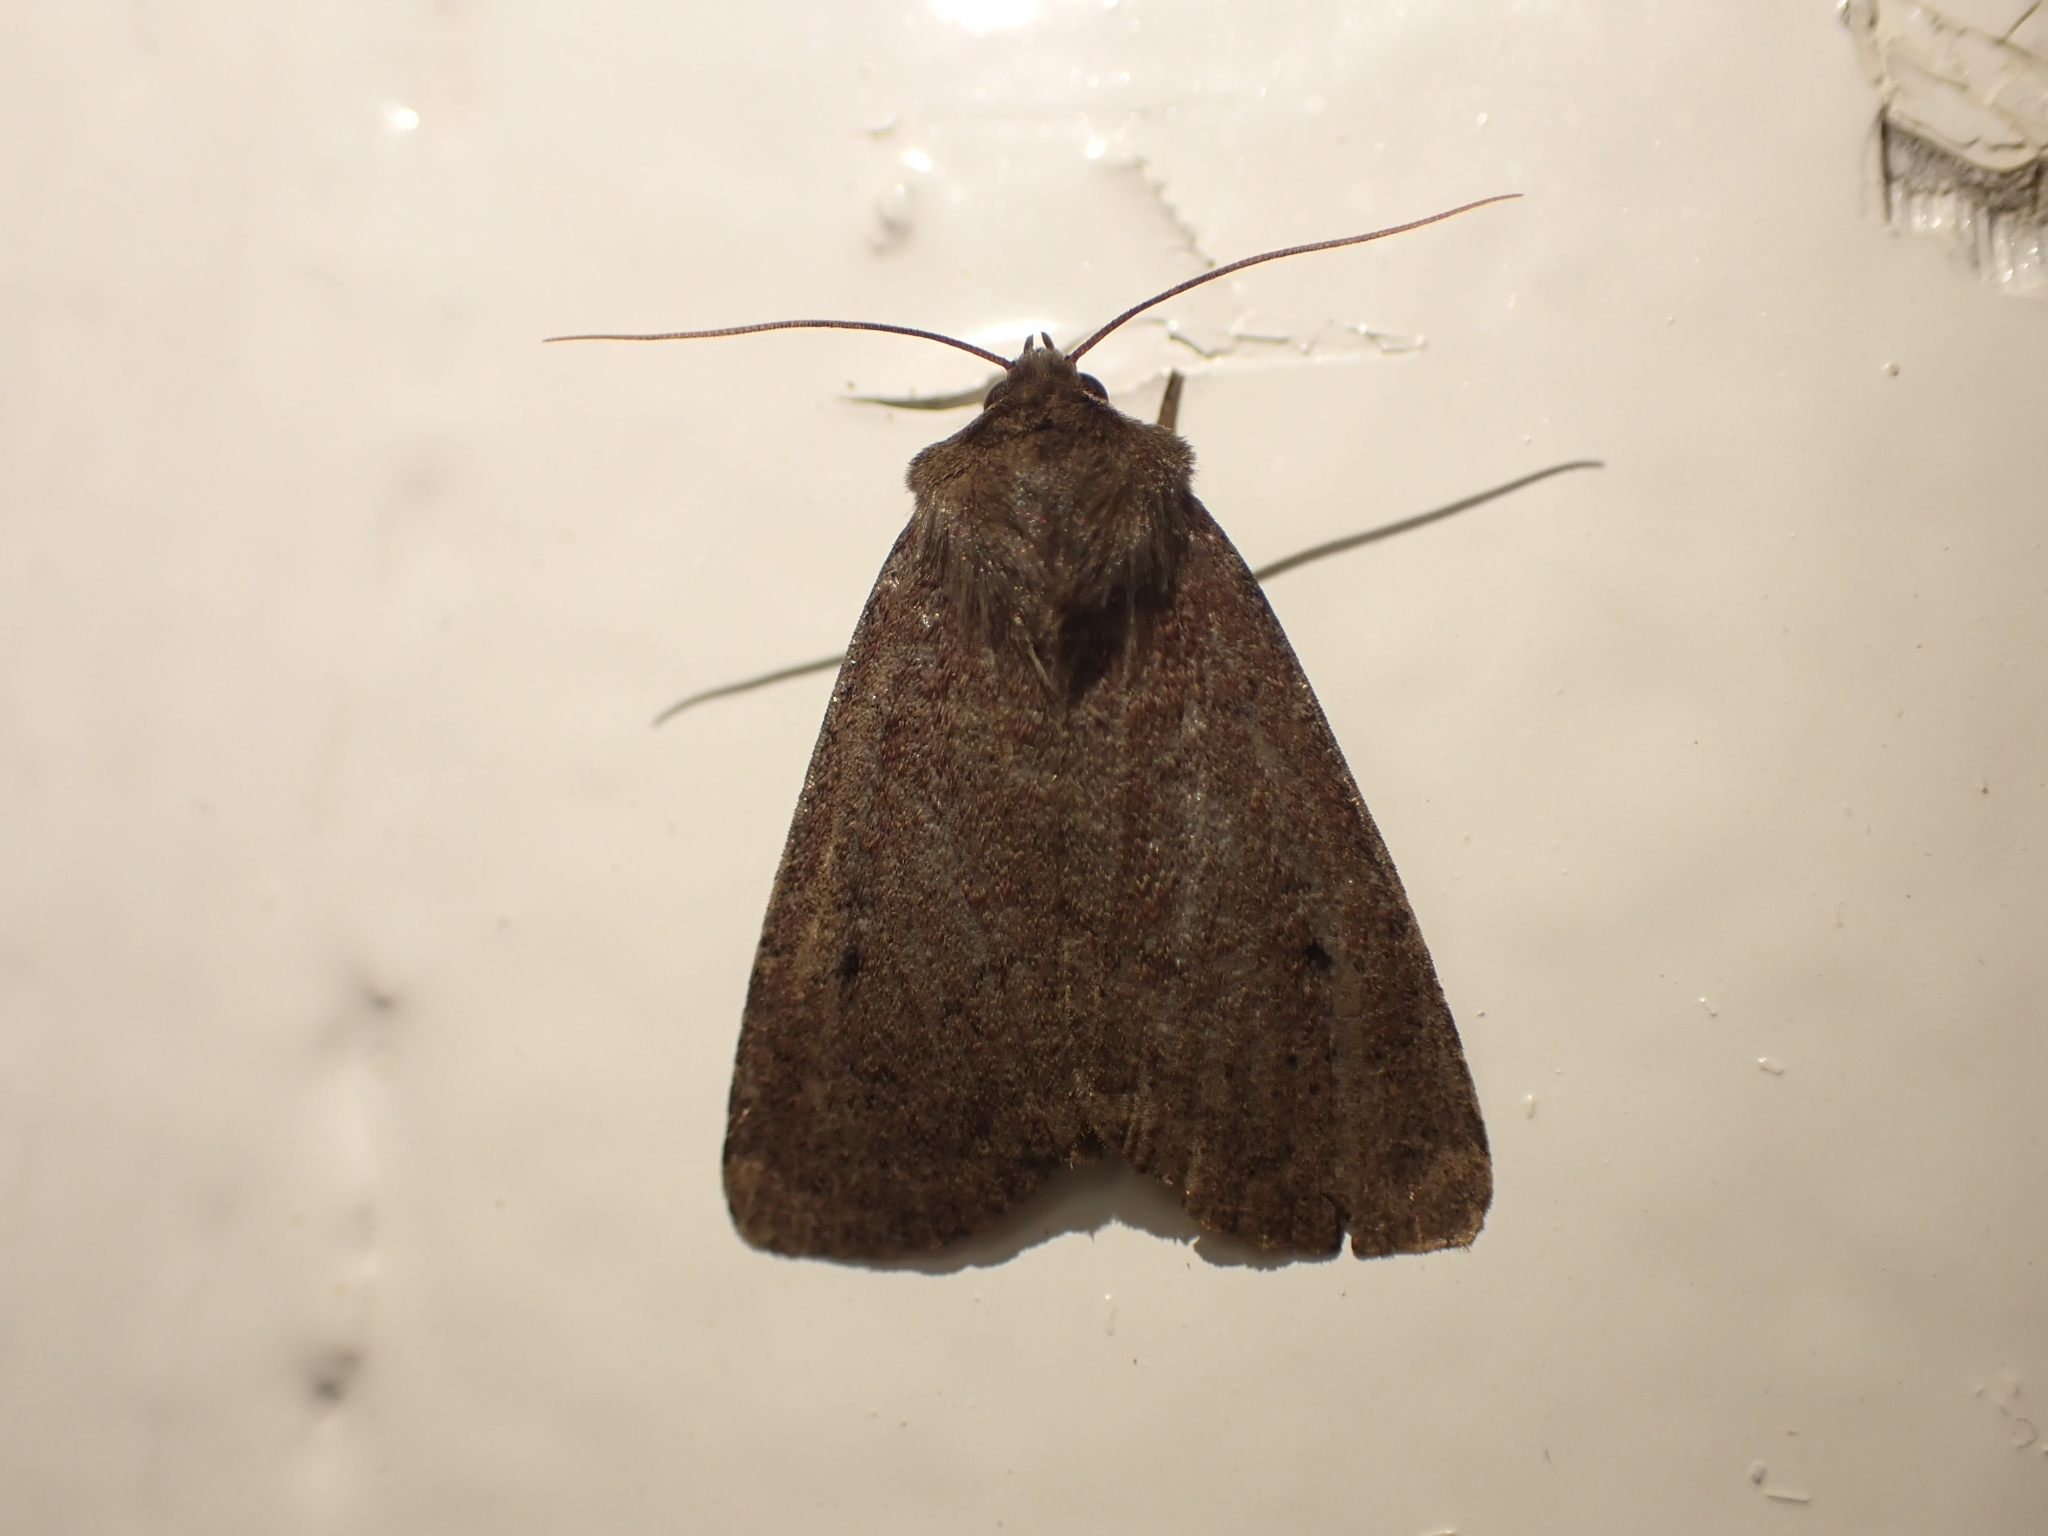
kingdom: Animalia
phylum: Arthropoda
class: Insecta
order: Lepidoptera
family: Noctuidae
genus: Graphiphora
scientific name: Graphiphora augur
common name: Double dart
